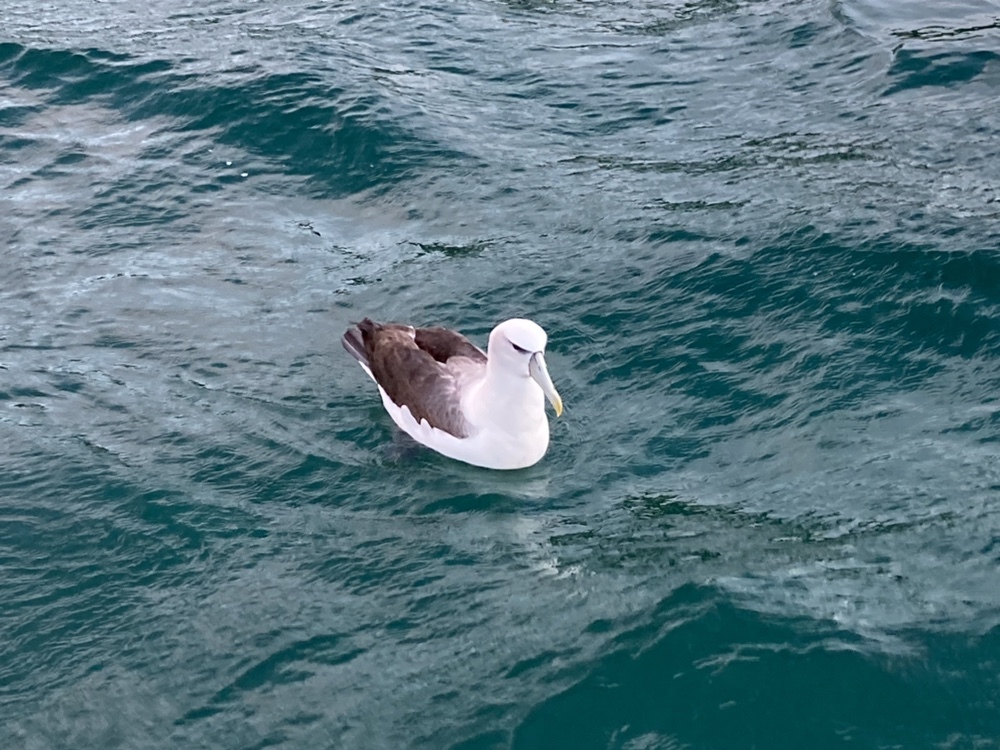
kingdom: Animalia
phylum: Chordata
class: Aves
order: Procellariiformes
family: Diomedeidae
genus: Thalassarche
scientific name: Thalassarche cauta
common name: Shy albatross
